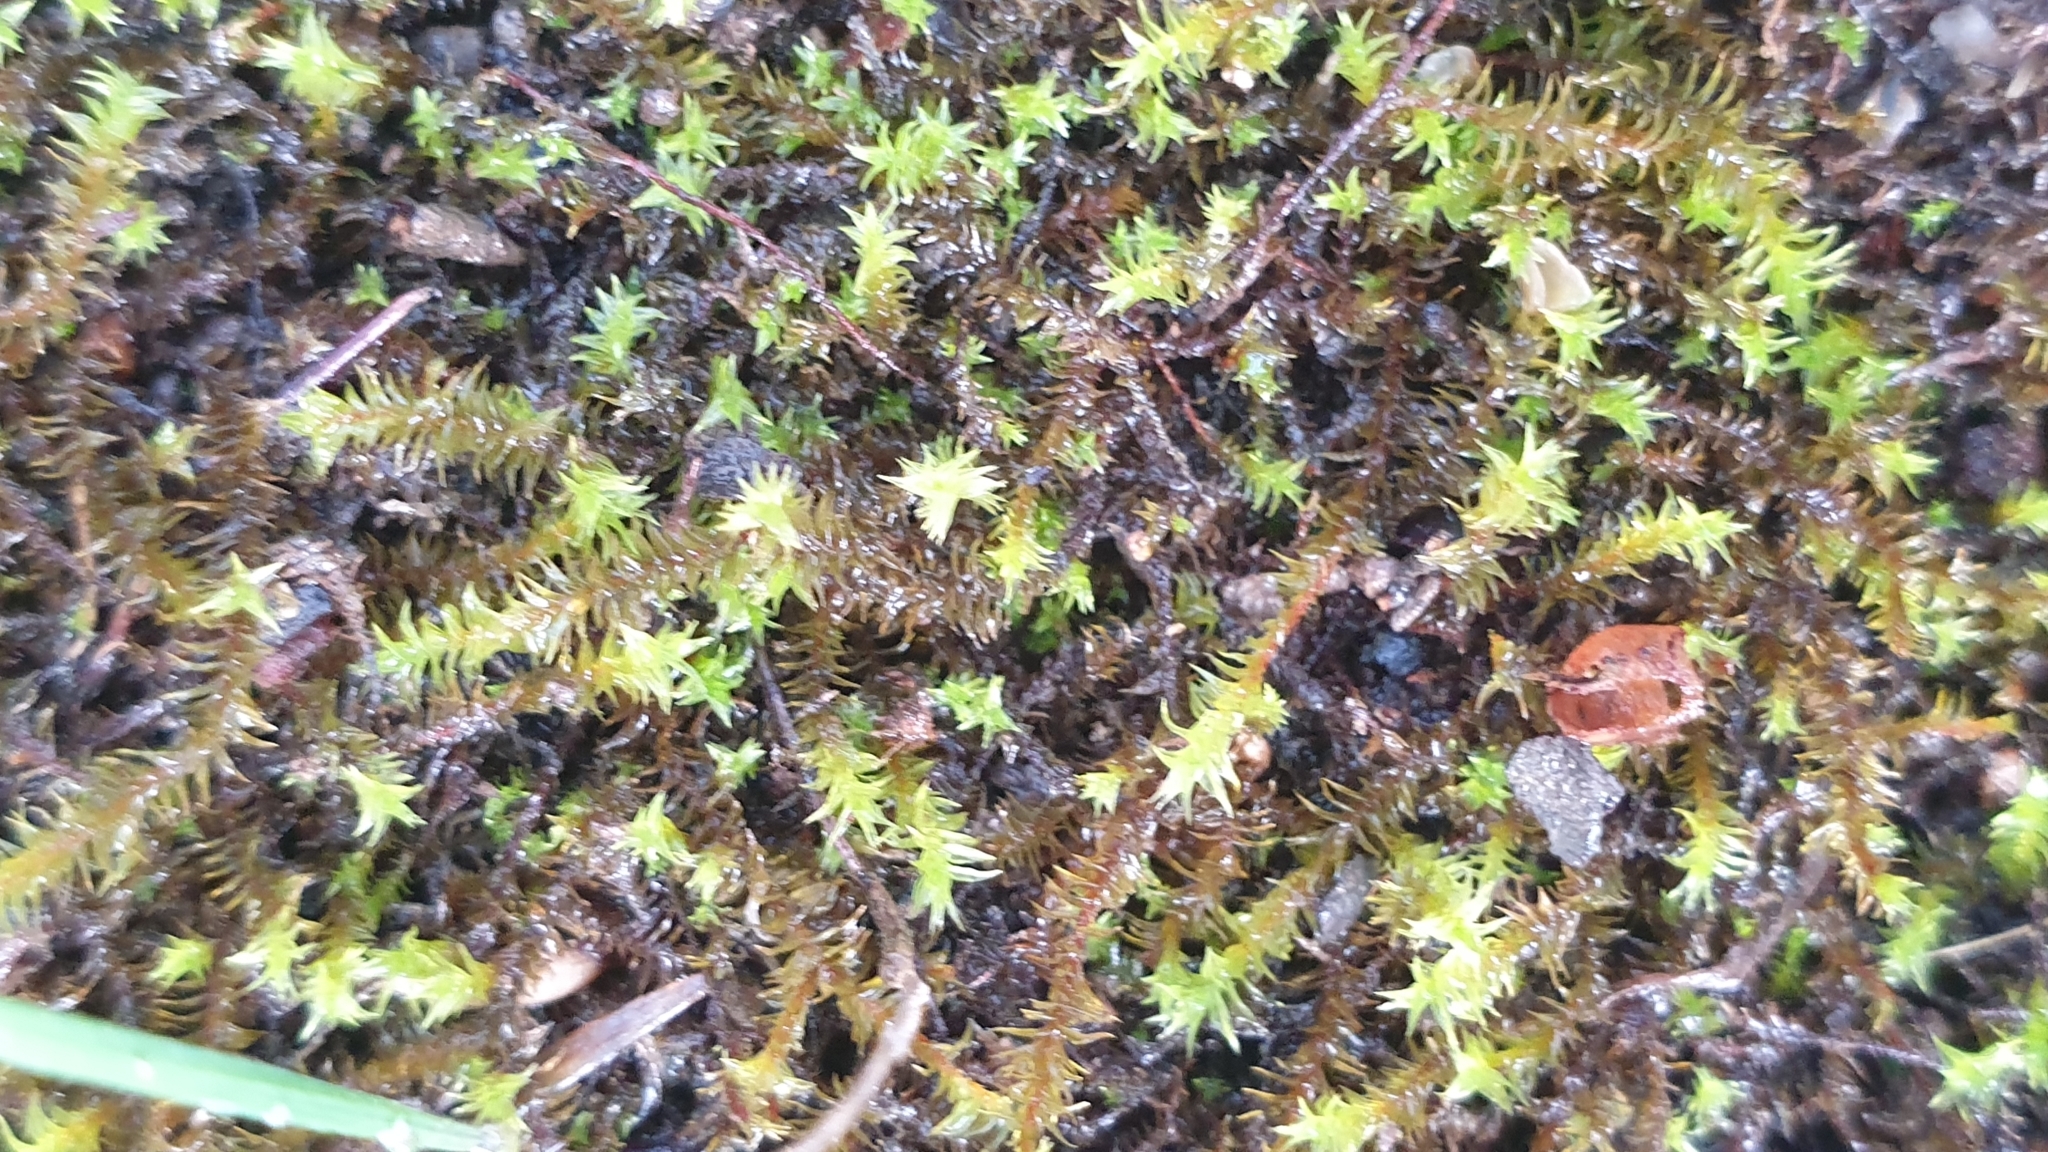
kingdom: Plantae
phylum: Bryophyta
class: Bryopsida
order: Pottiales
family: Pottiaceae
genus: Triquetrella
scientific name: Triquetrella papillata
